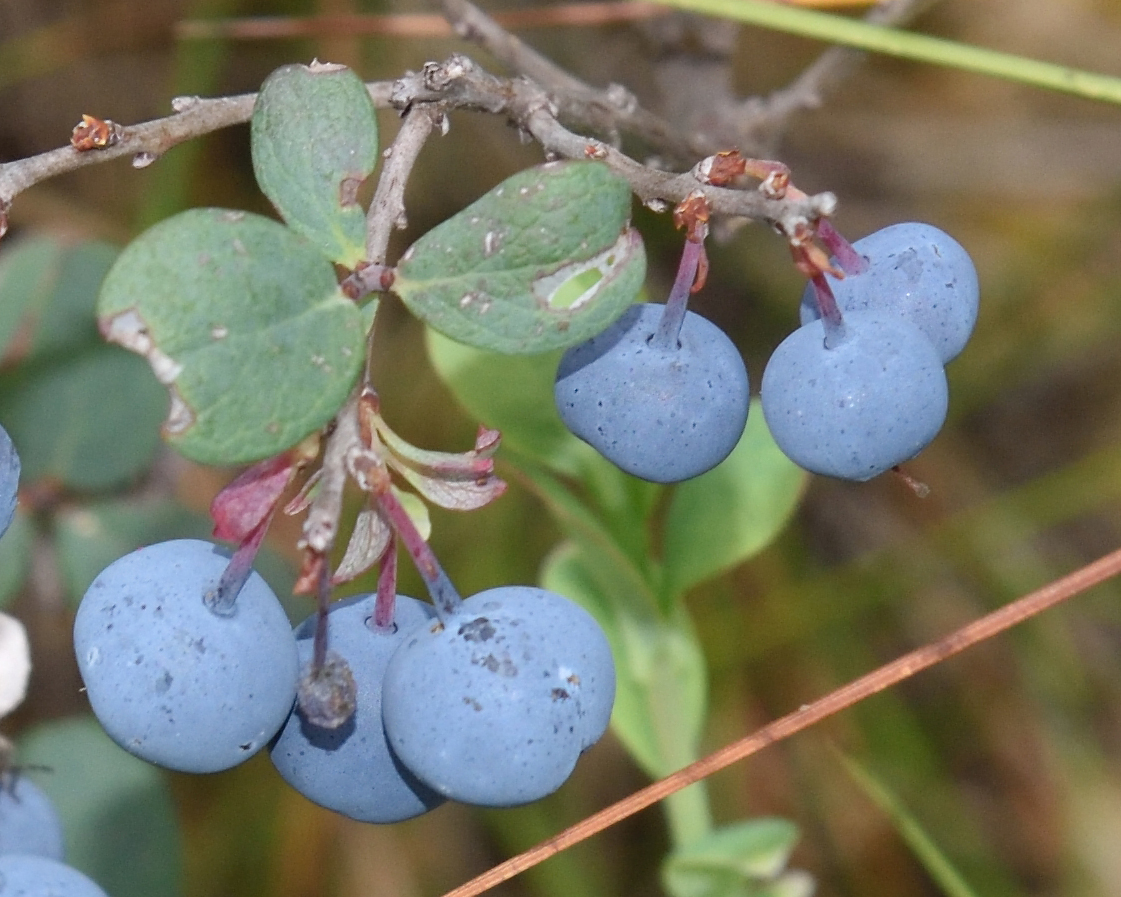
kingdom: Plantae
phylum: Tracheophyta
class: Magnoliopsida
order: Ericales
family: Ericaceae
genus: Vaccinium
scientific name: Vaccinium uliginosum
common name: Bog bilberry
